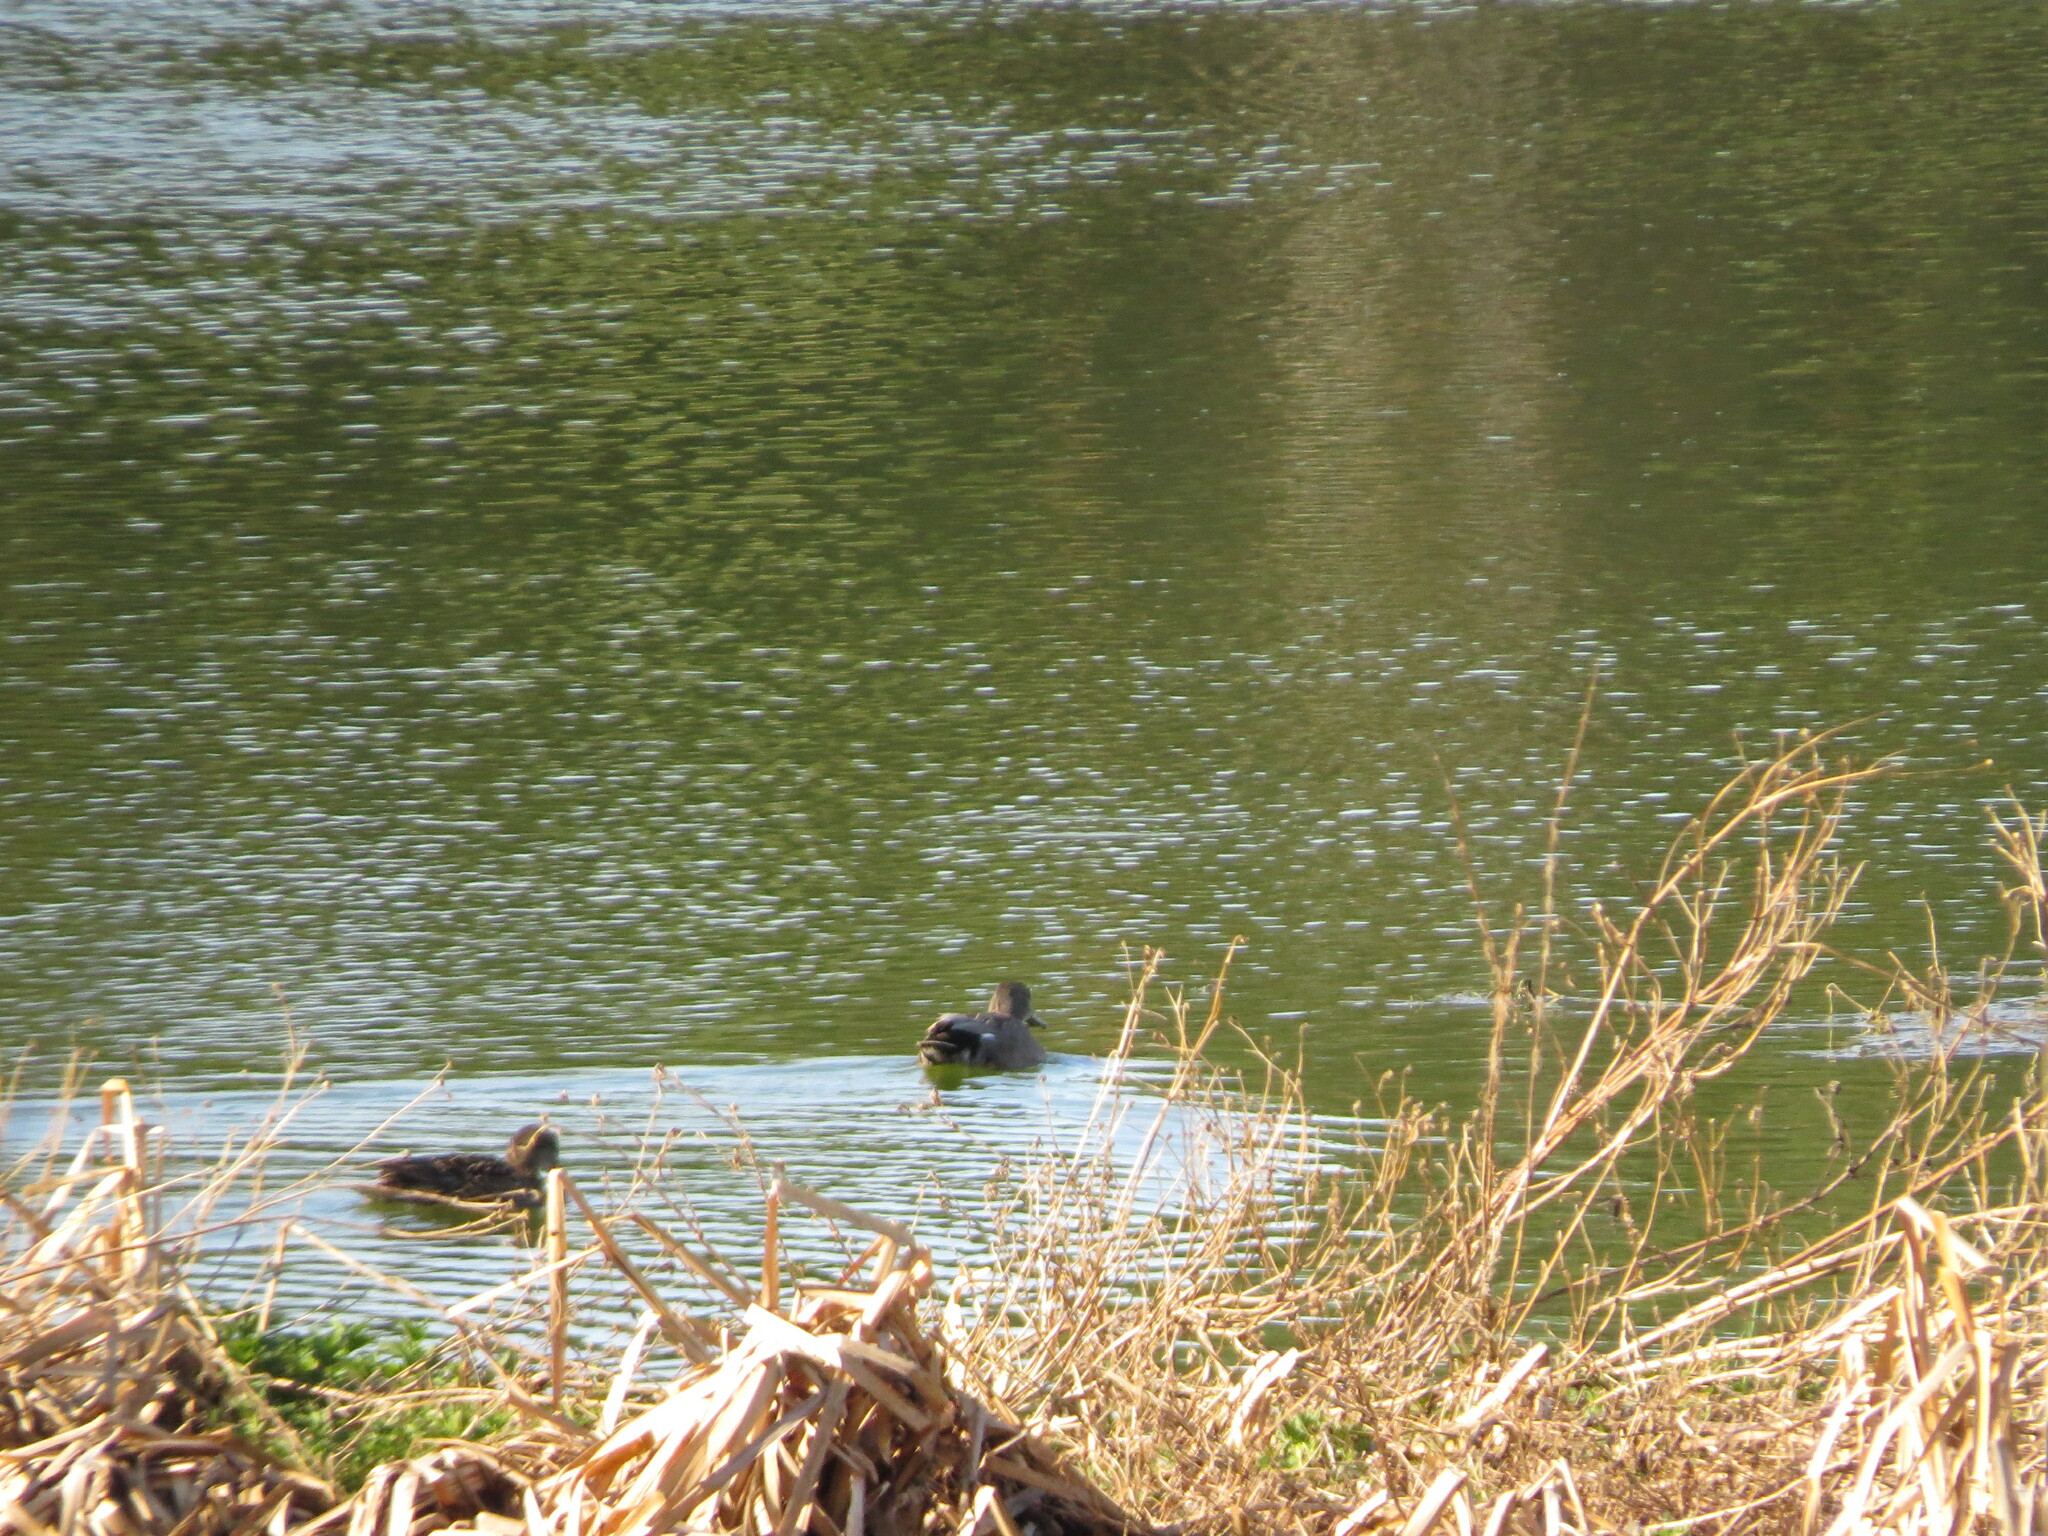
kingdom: Animalia
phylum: Chordata
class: Aves
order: Anseriformes
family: Anatidae
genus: Mareca
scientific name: Mareca strepera
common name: Gadwall
